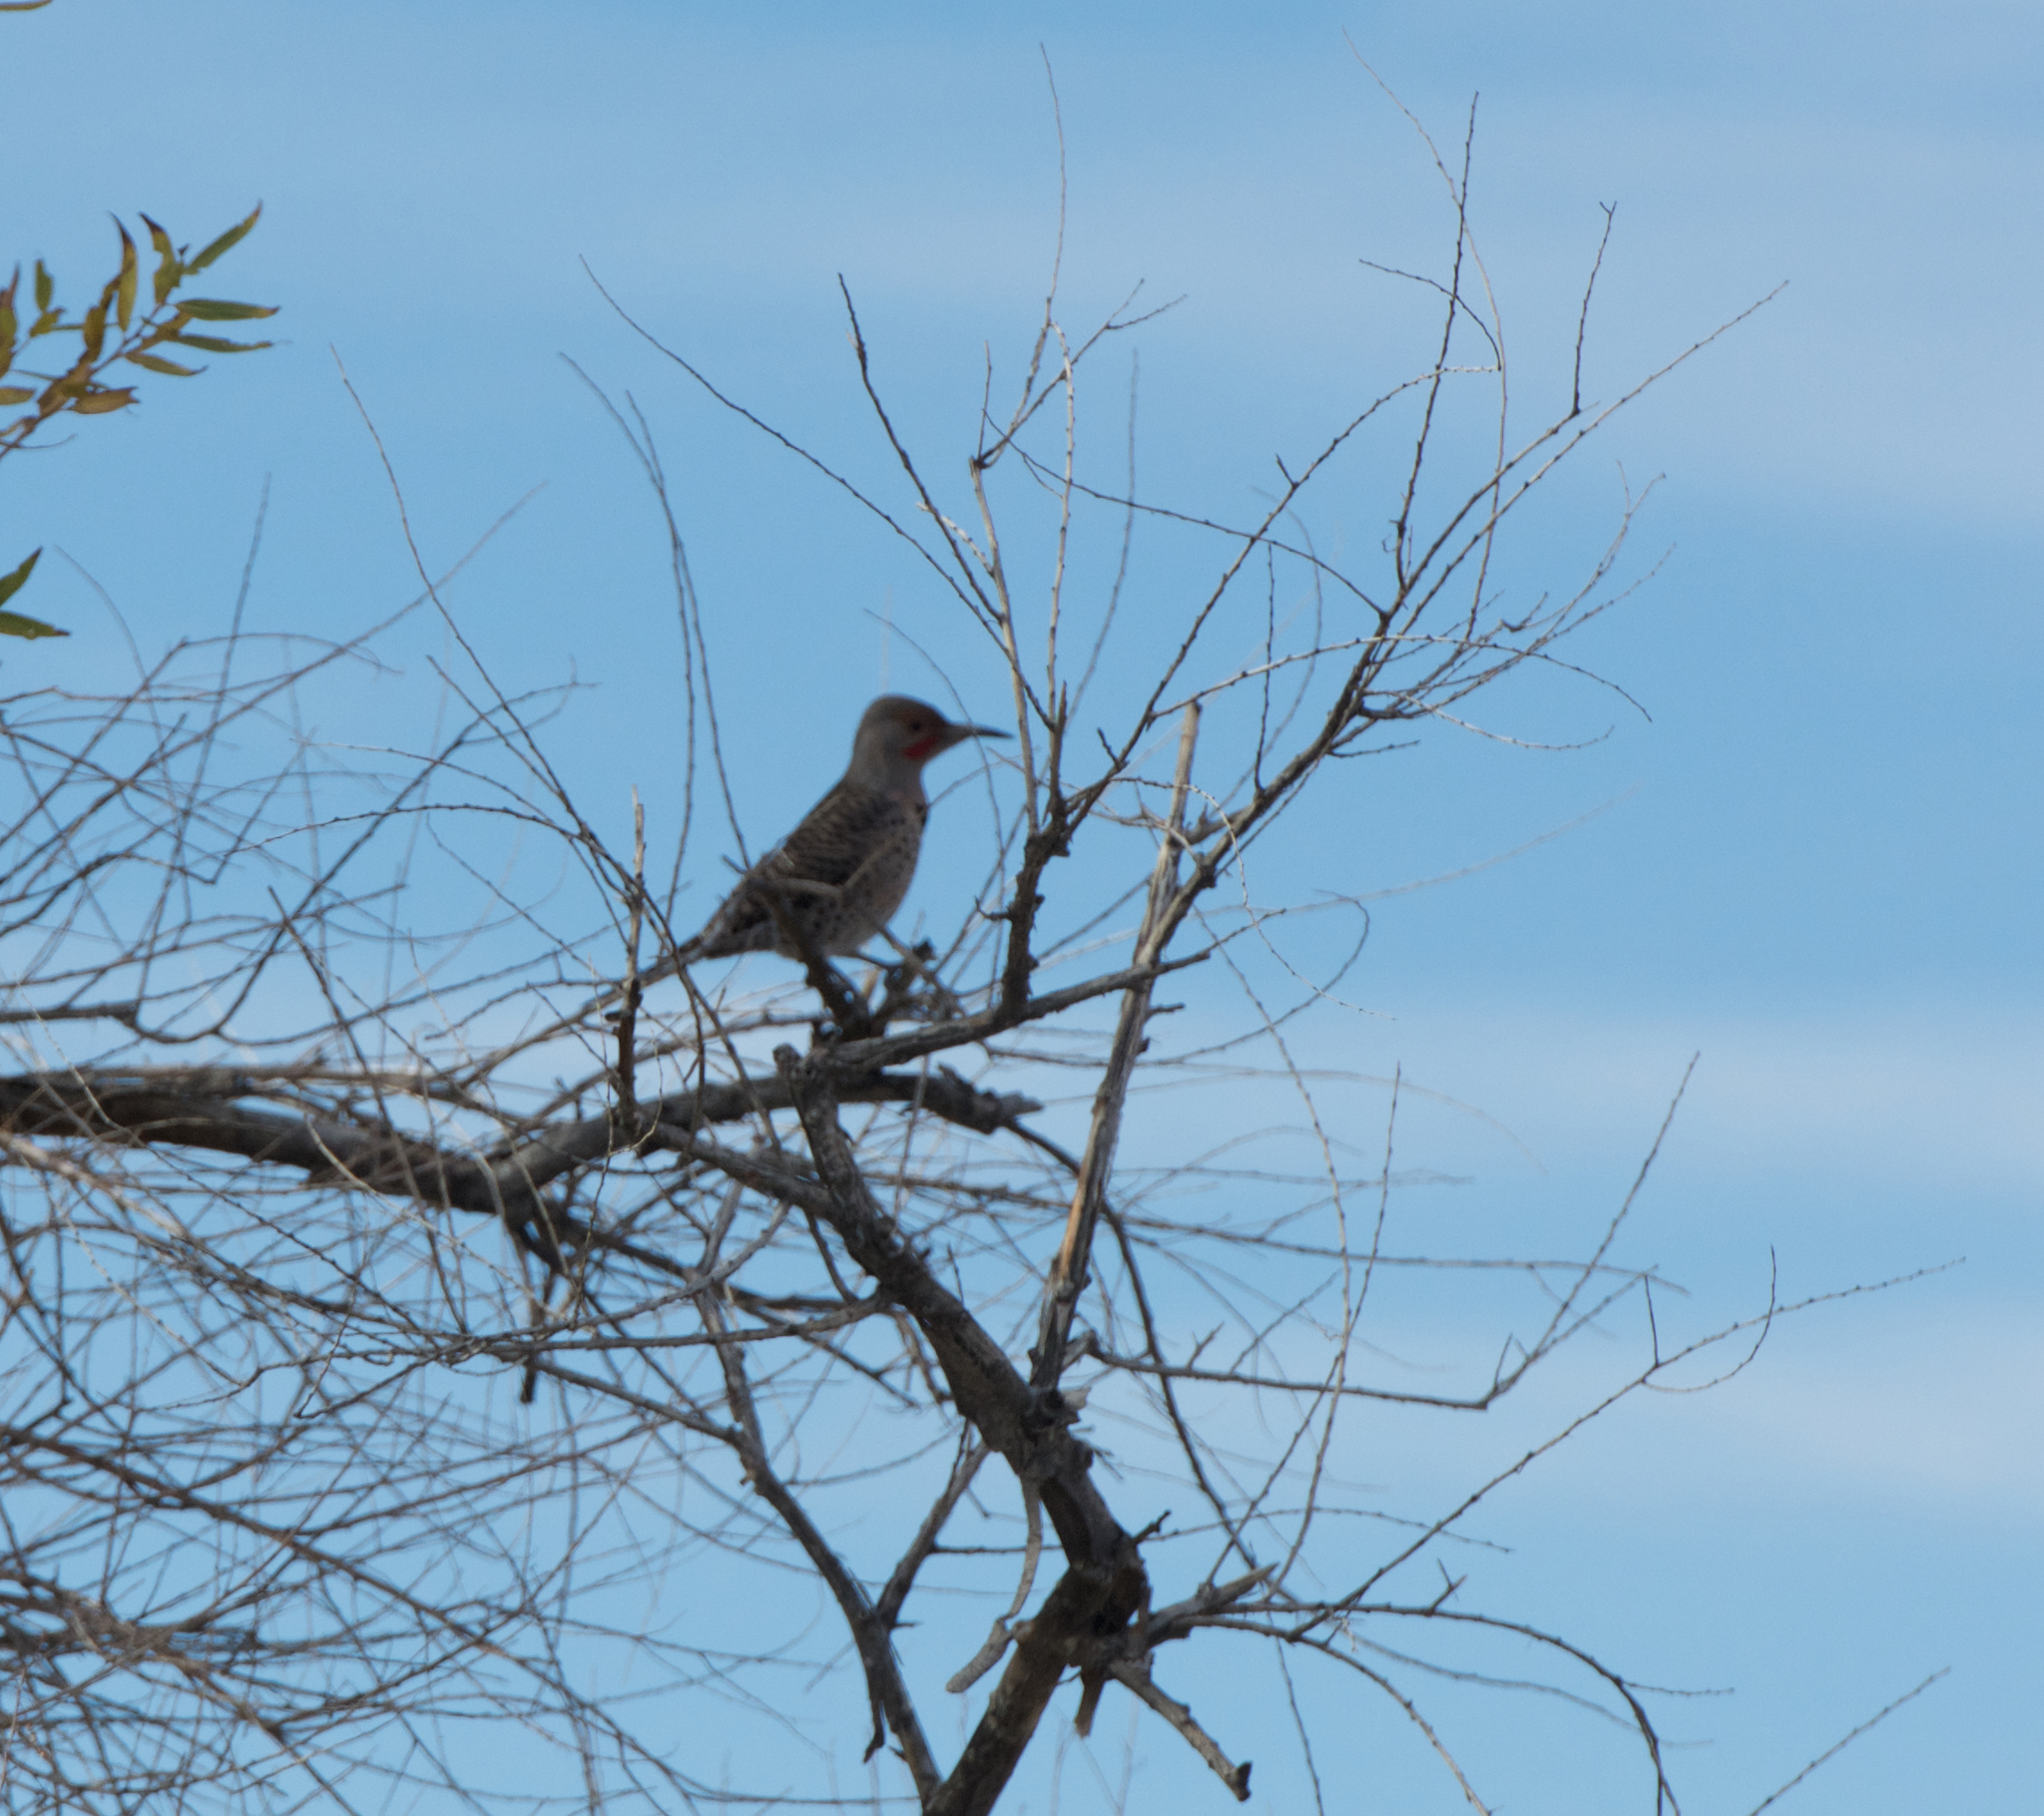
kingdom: Animalia
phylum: Chordata
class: Aves
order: Piciformes
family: Picidae
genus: Colaptes
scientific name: Colaptes auratus
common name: Northern flicker
